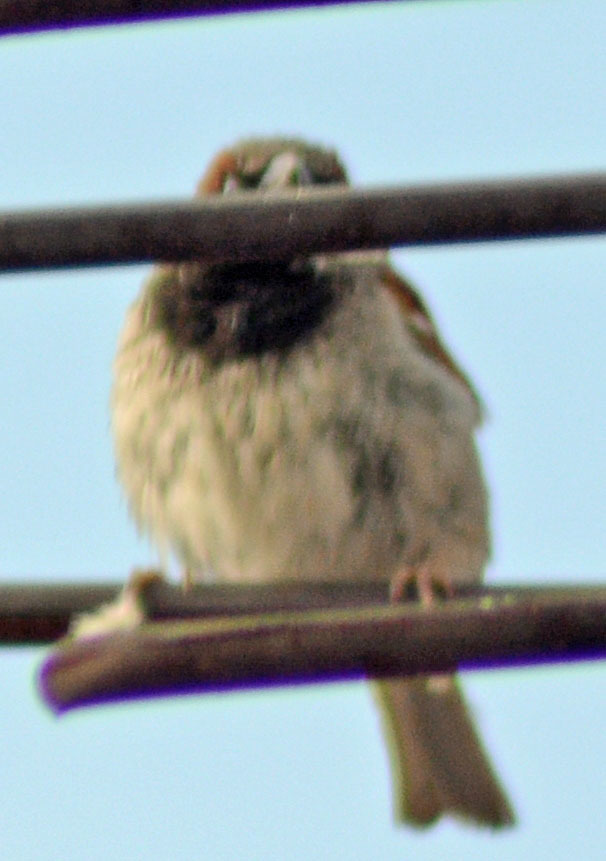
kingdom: Animalia
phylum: Chordata
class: Aves
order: Passeriformes
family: Passeridae
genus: Passer
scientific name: Passer domesticus
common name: House sparrow
